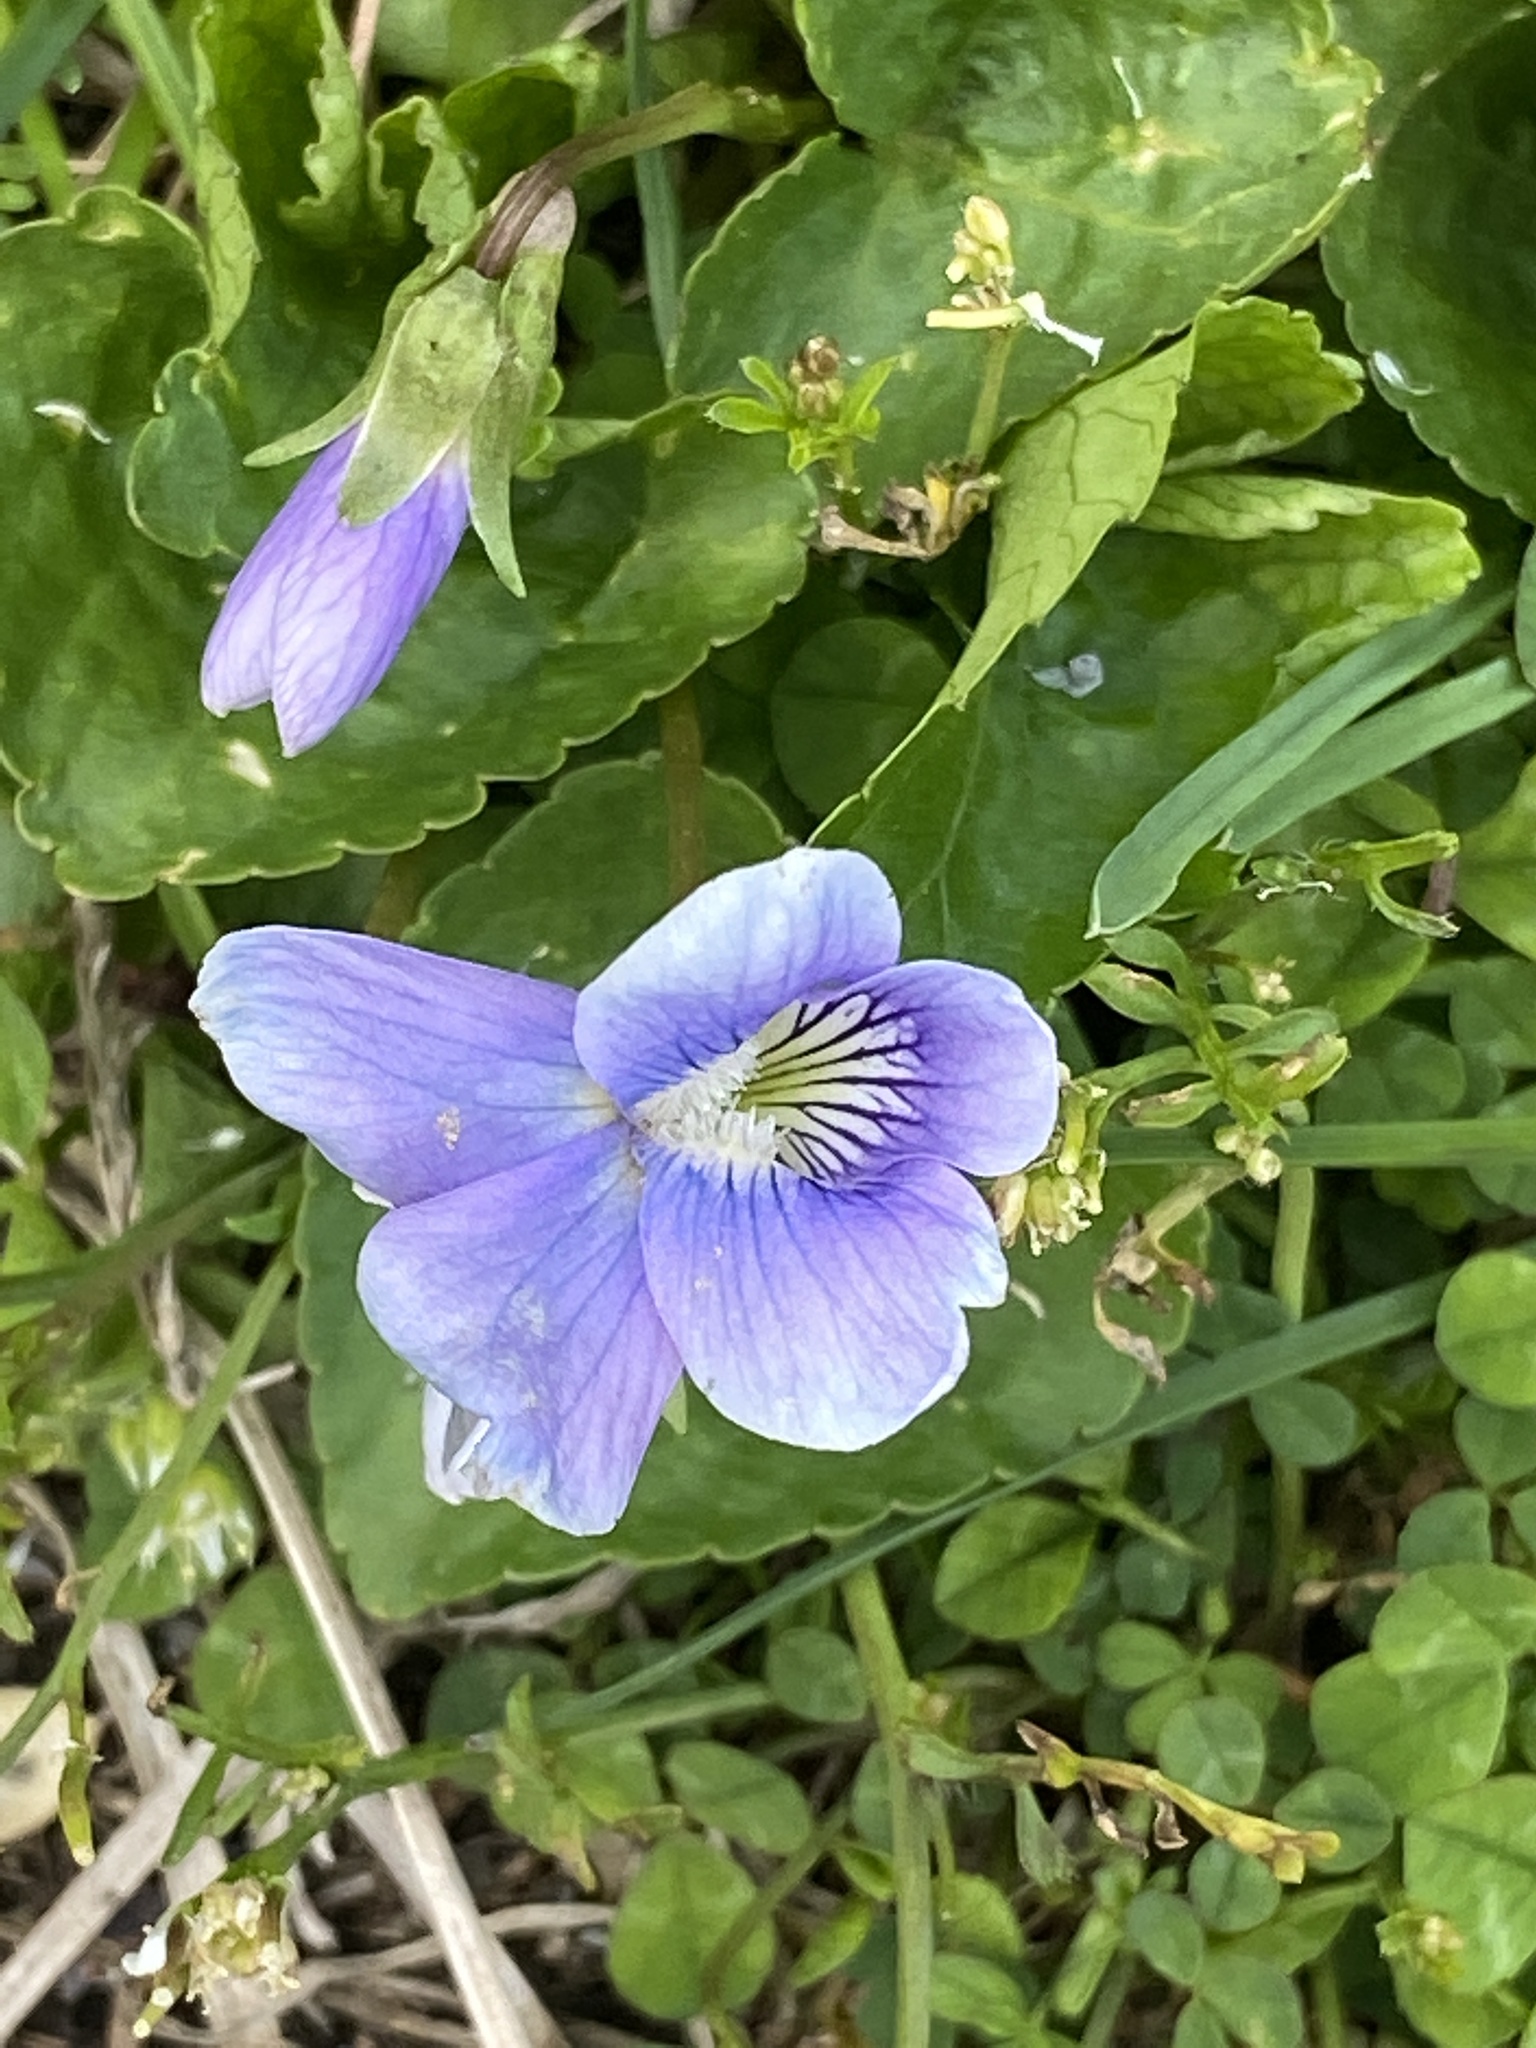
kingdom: Plantae
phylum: Tracheophyta
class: Magnoliopsida
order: Malpighiales
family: Violaceae
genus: Viola
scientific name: Viola sororia
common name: Dooryard violet
